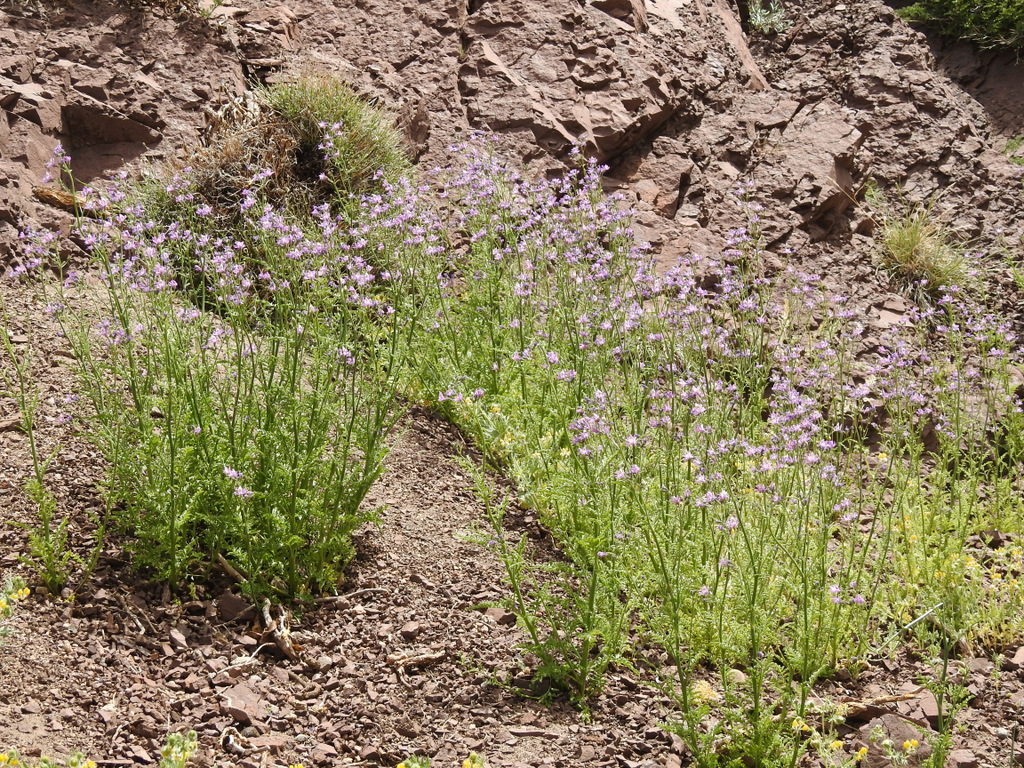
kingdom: Plantae
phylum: Tracheophyta
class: Magnoliopsida
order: Solanales
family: Solanaceae
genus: Schizanthus
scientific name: Schizanthus grahamii
